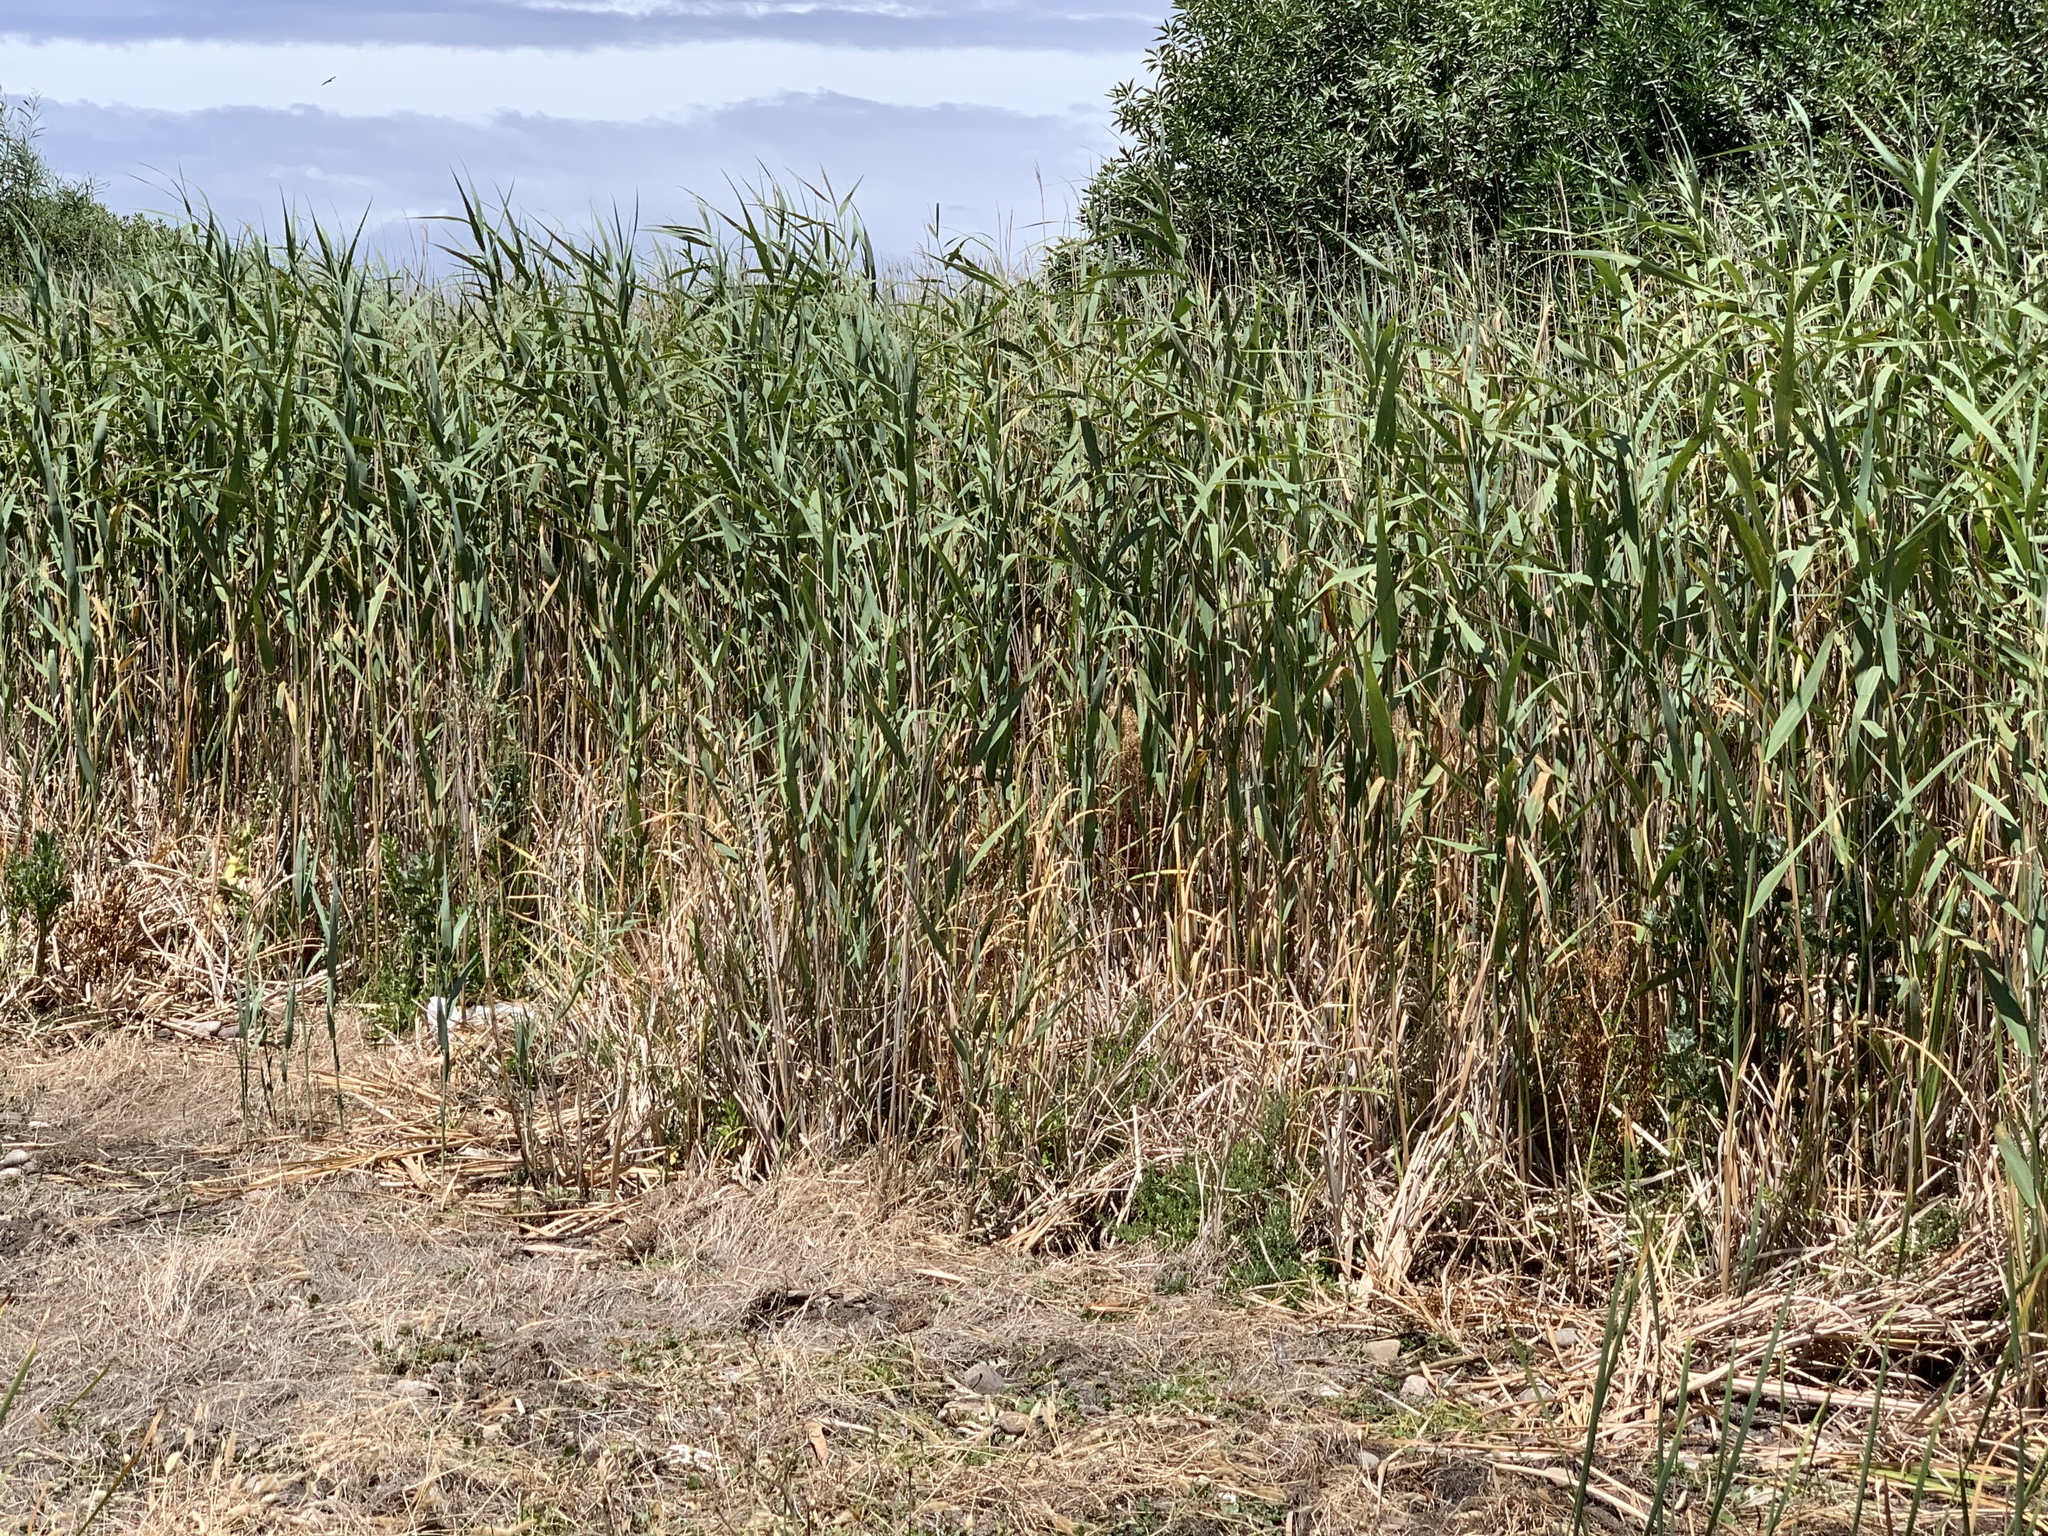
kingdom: Plantae
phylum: Tracheophyta
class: Liliopsida
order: Poales
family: Poaceae
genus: Phragmites
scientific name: Phragmites australis
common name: Common reed
